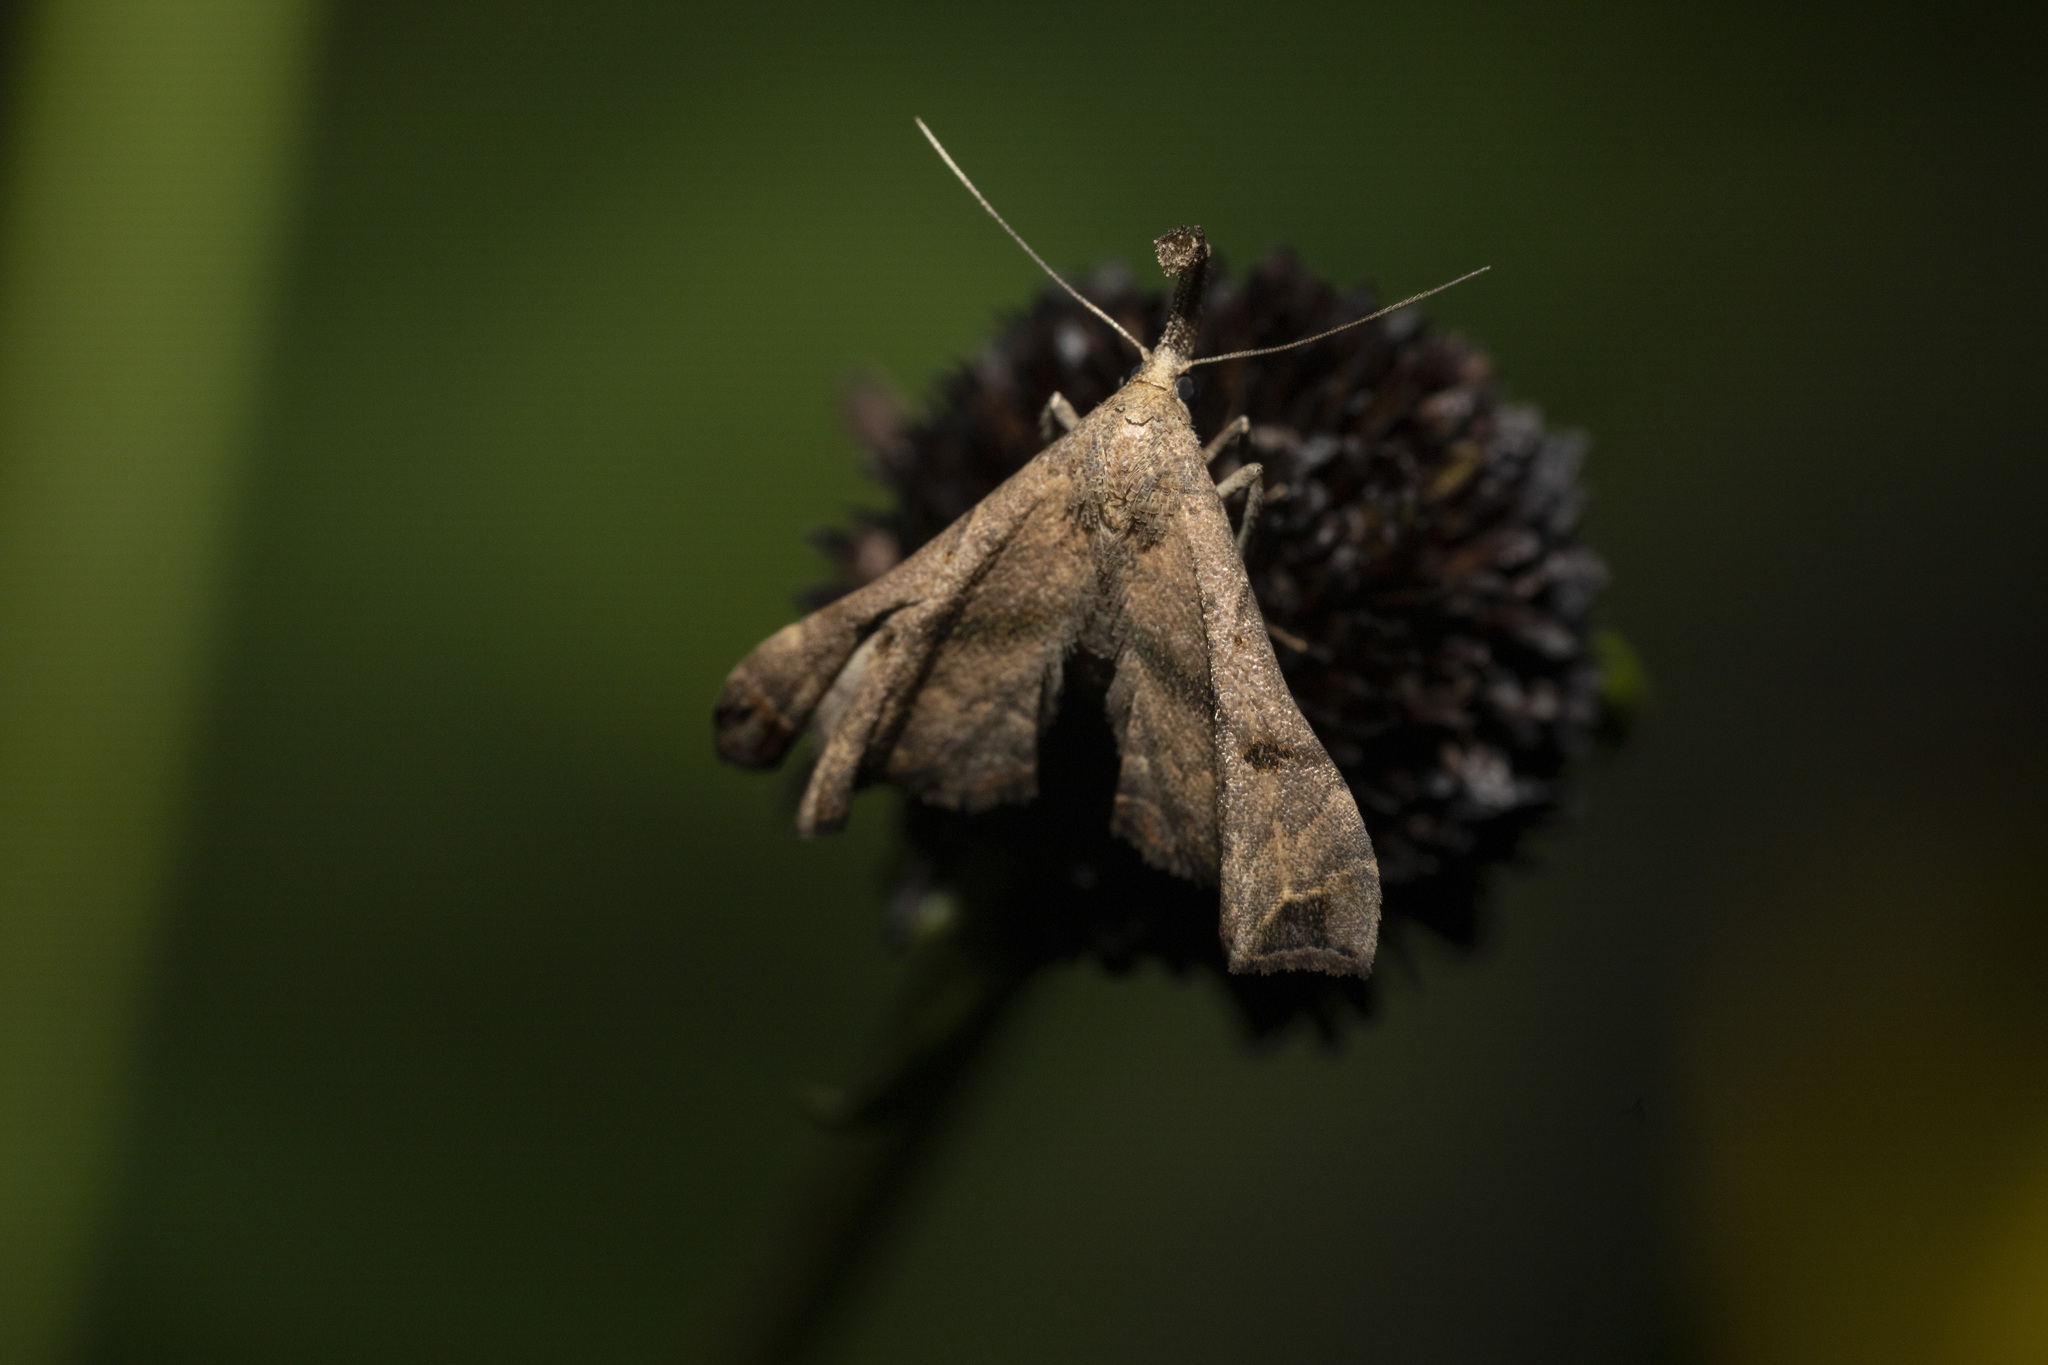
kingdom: Animalia
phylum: Arthropoda
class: Insecta
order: Lepidoptera
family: Erebidae
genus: Palthis
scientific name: Palthis asopialis
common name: Faint-spotted palthis moth
